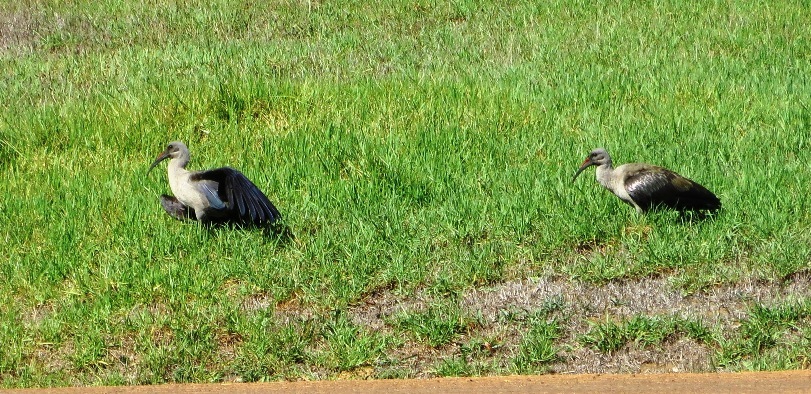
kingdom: Animalia
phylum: Chordata
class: Aves
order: Pelecaniformes
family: Threskiornithidae
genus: Bostrychia
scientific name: Bostrychia hagedash
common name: Hadada ibis
